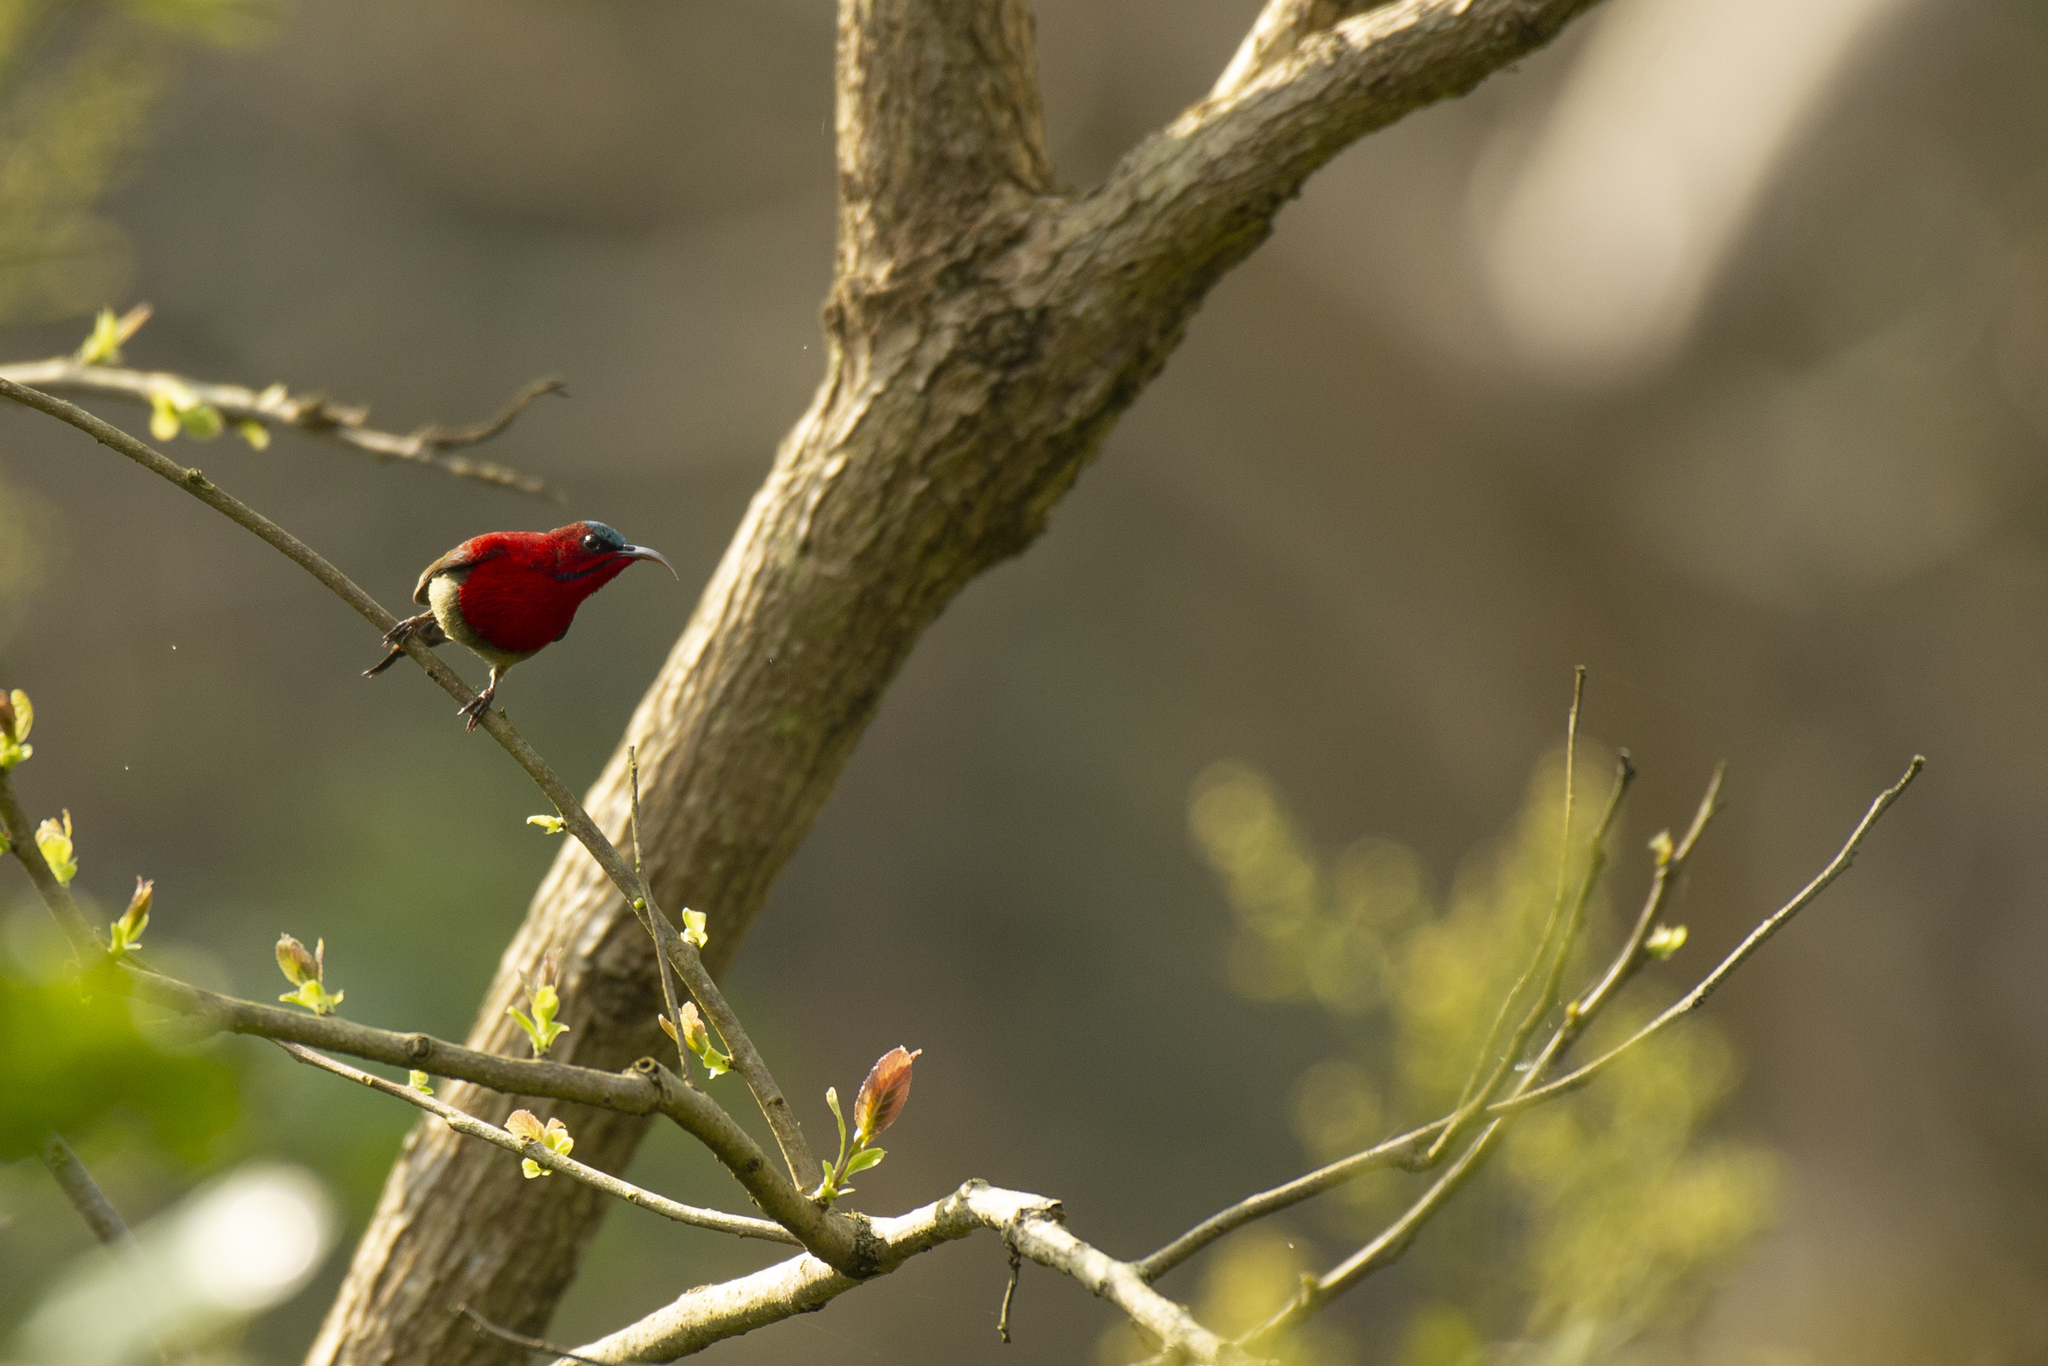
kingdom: Animalia
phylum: Chordata
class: Aves
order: Passeriformes
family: Nectariniidae
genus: Aethopyga
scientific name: Aethopyga siparaja
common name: Crimson sunbird
